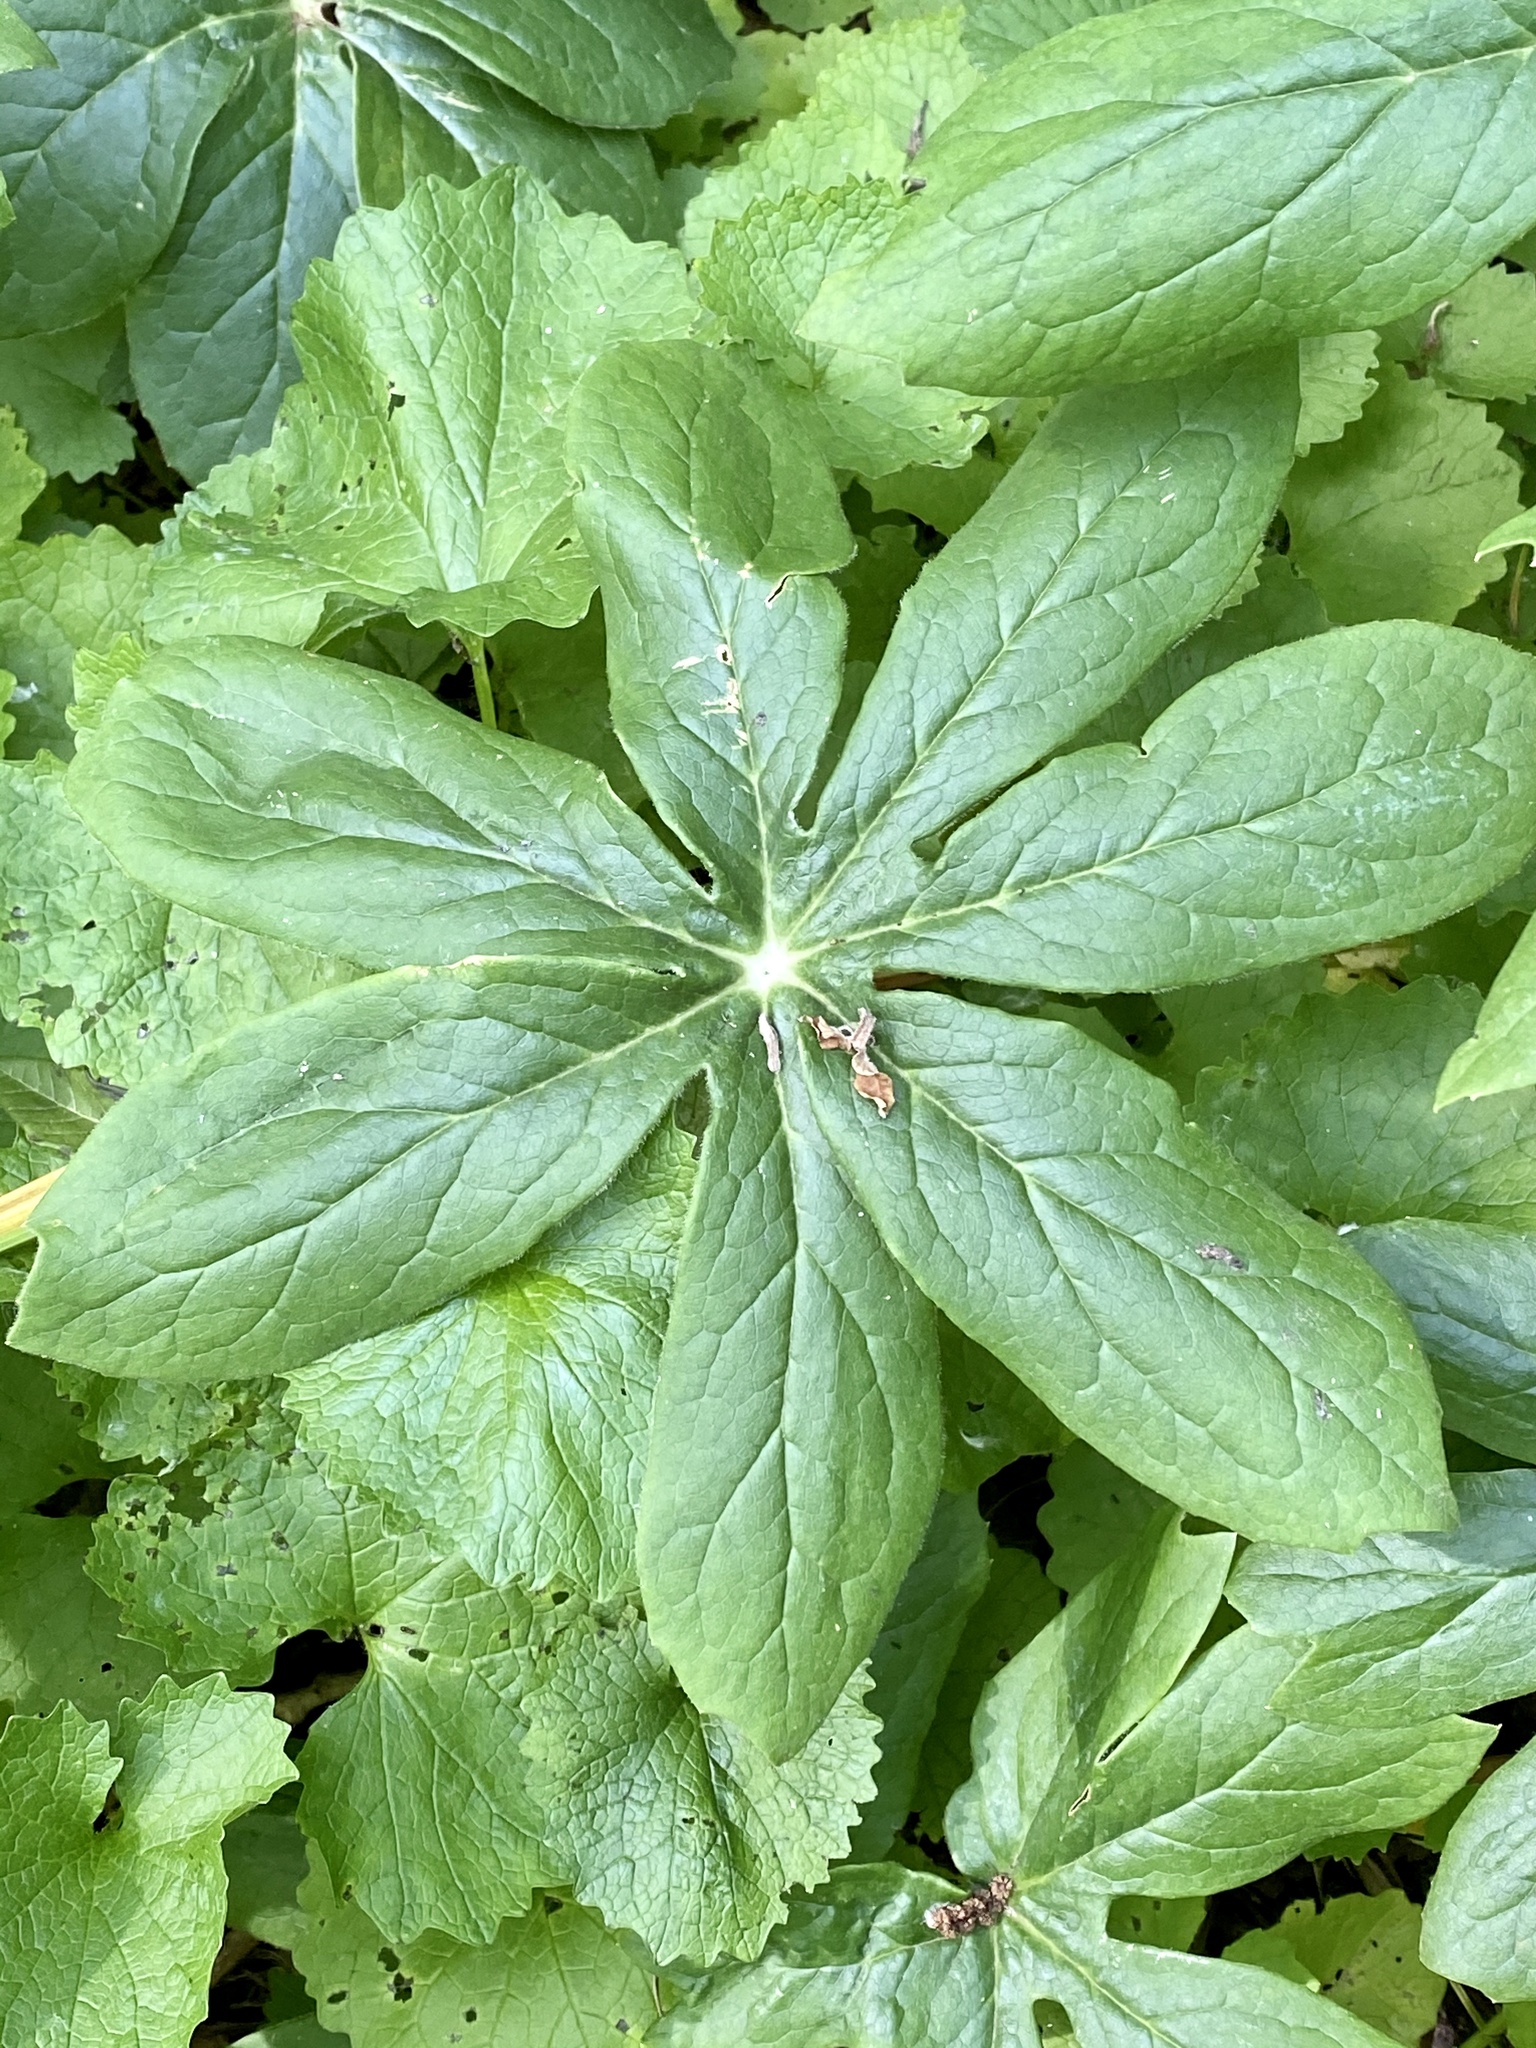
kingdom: Plantae
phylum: Tracheophyta
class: Magnoliopsida
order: Ranunculales
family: Berberidaceae
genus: Podophyllum
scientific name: Podophyllum peltatum
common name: Wild mandrake
